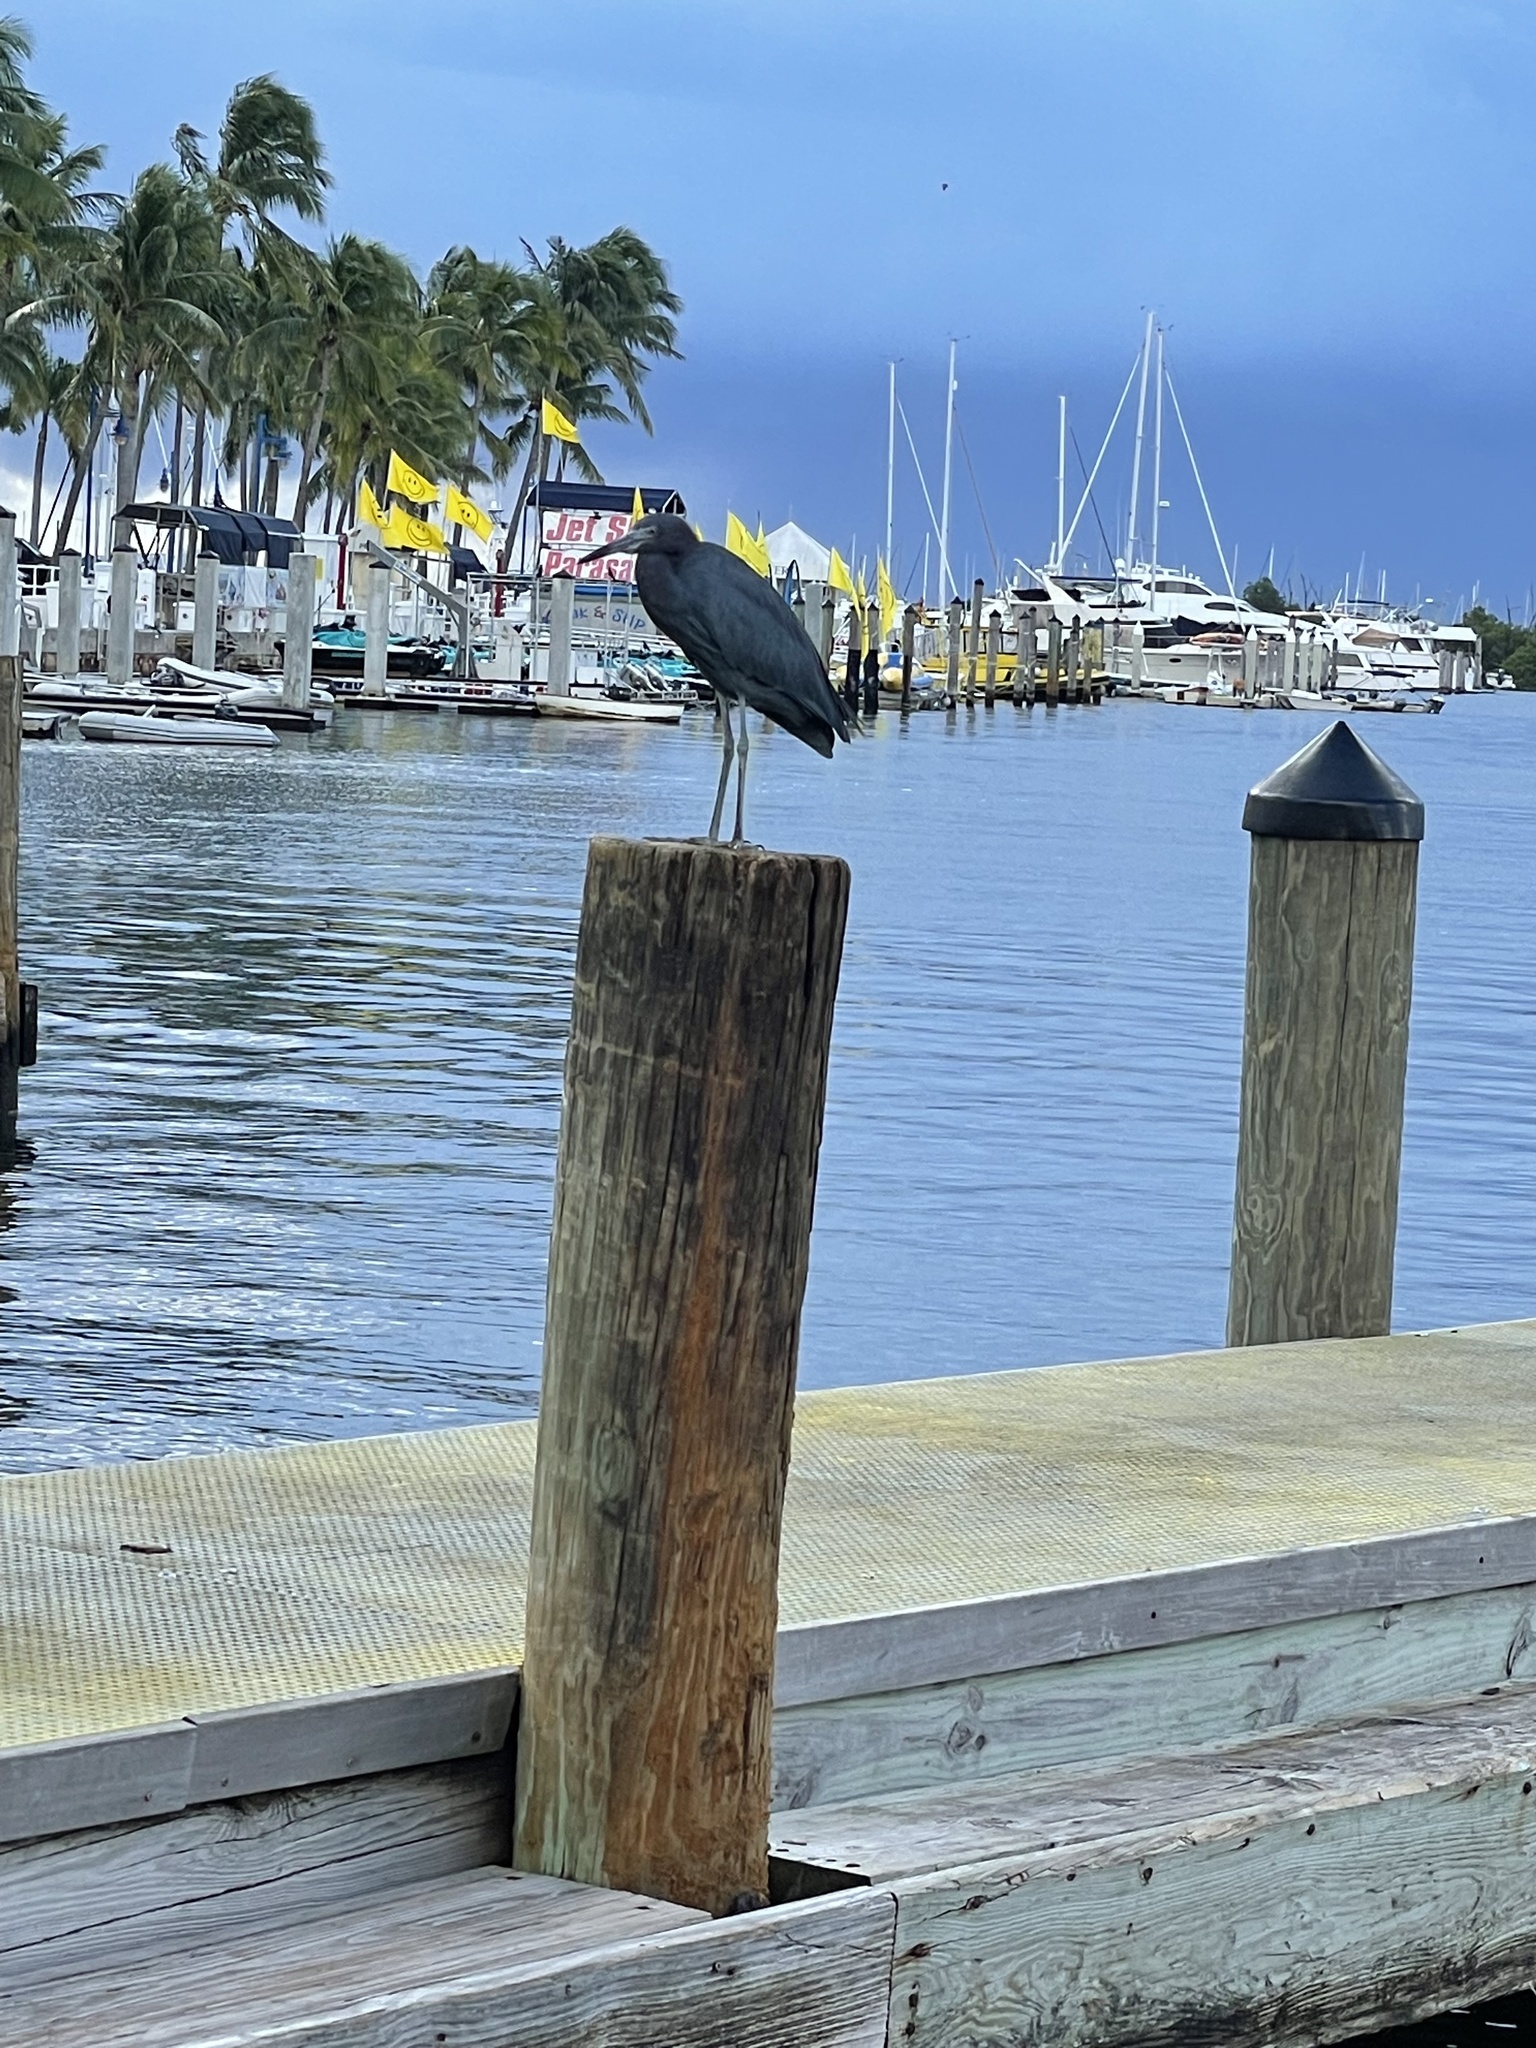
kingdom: Animalia
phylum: Chordata
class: Aves
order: Pelecaniformes
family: Ardeidae
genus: Egretta
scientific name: Egretta caerulea
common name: Little blue heron
